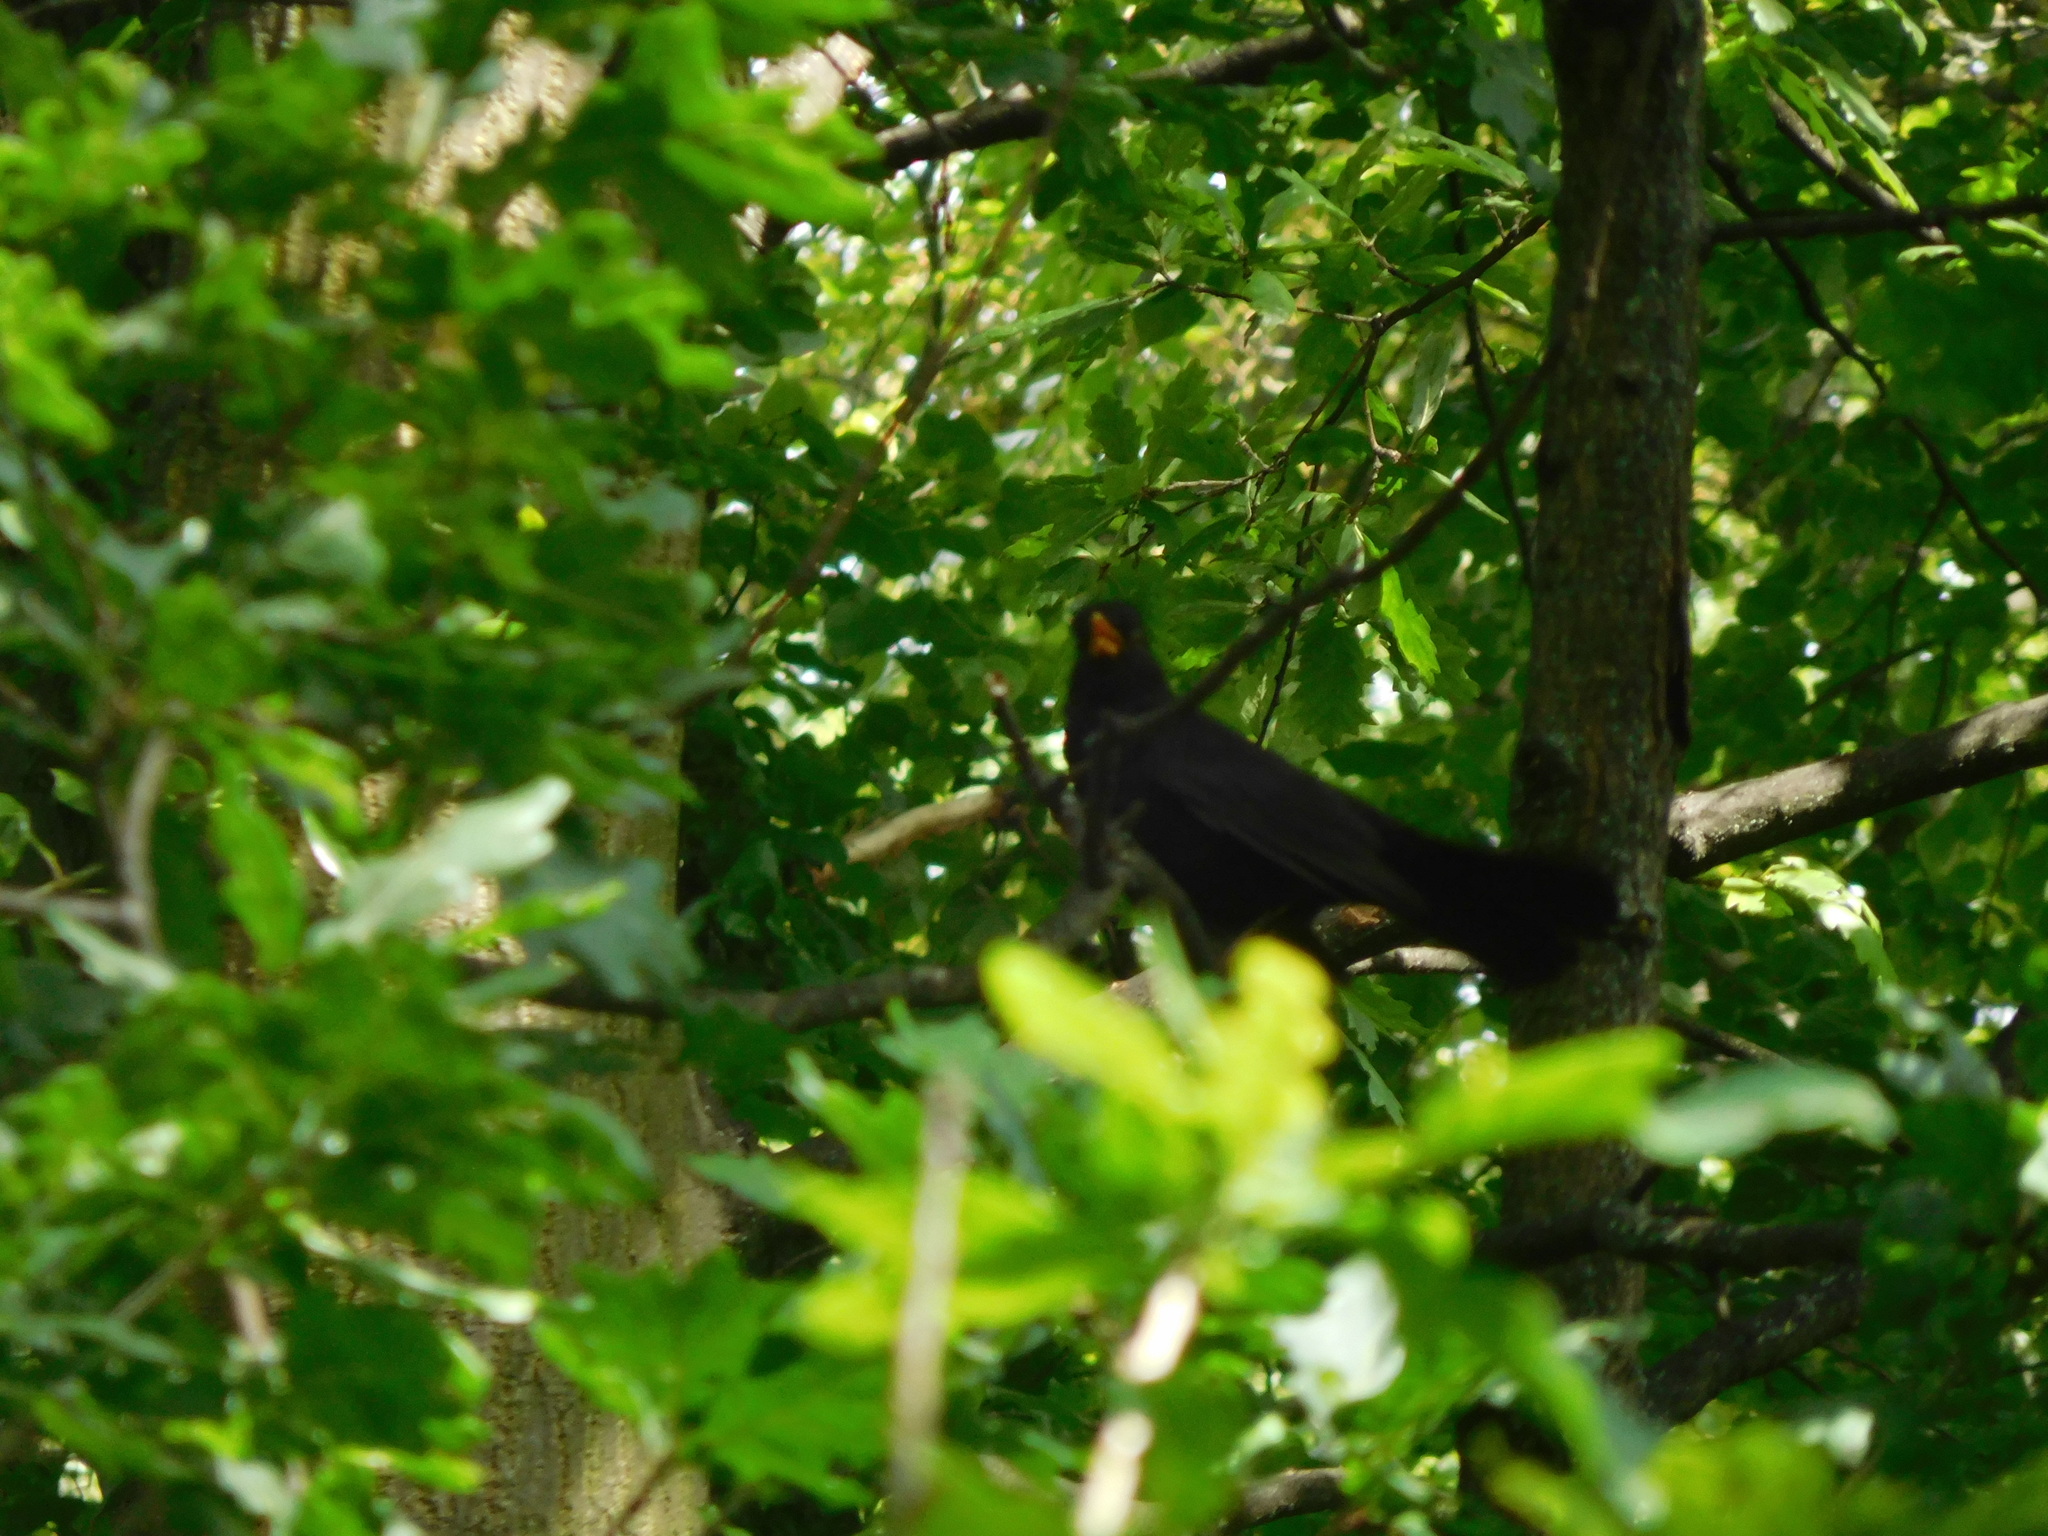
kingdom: Animalia
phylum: Chordata
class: Aves
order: Passeriformes
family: Turdidae
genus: Turdus
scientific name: Turdus merula
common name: Common blackbird
